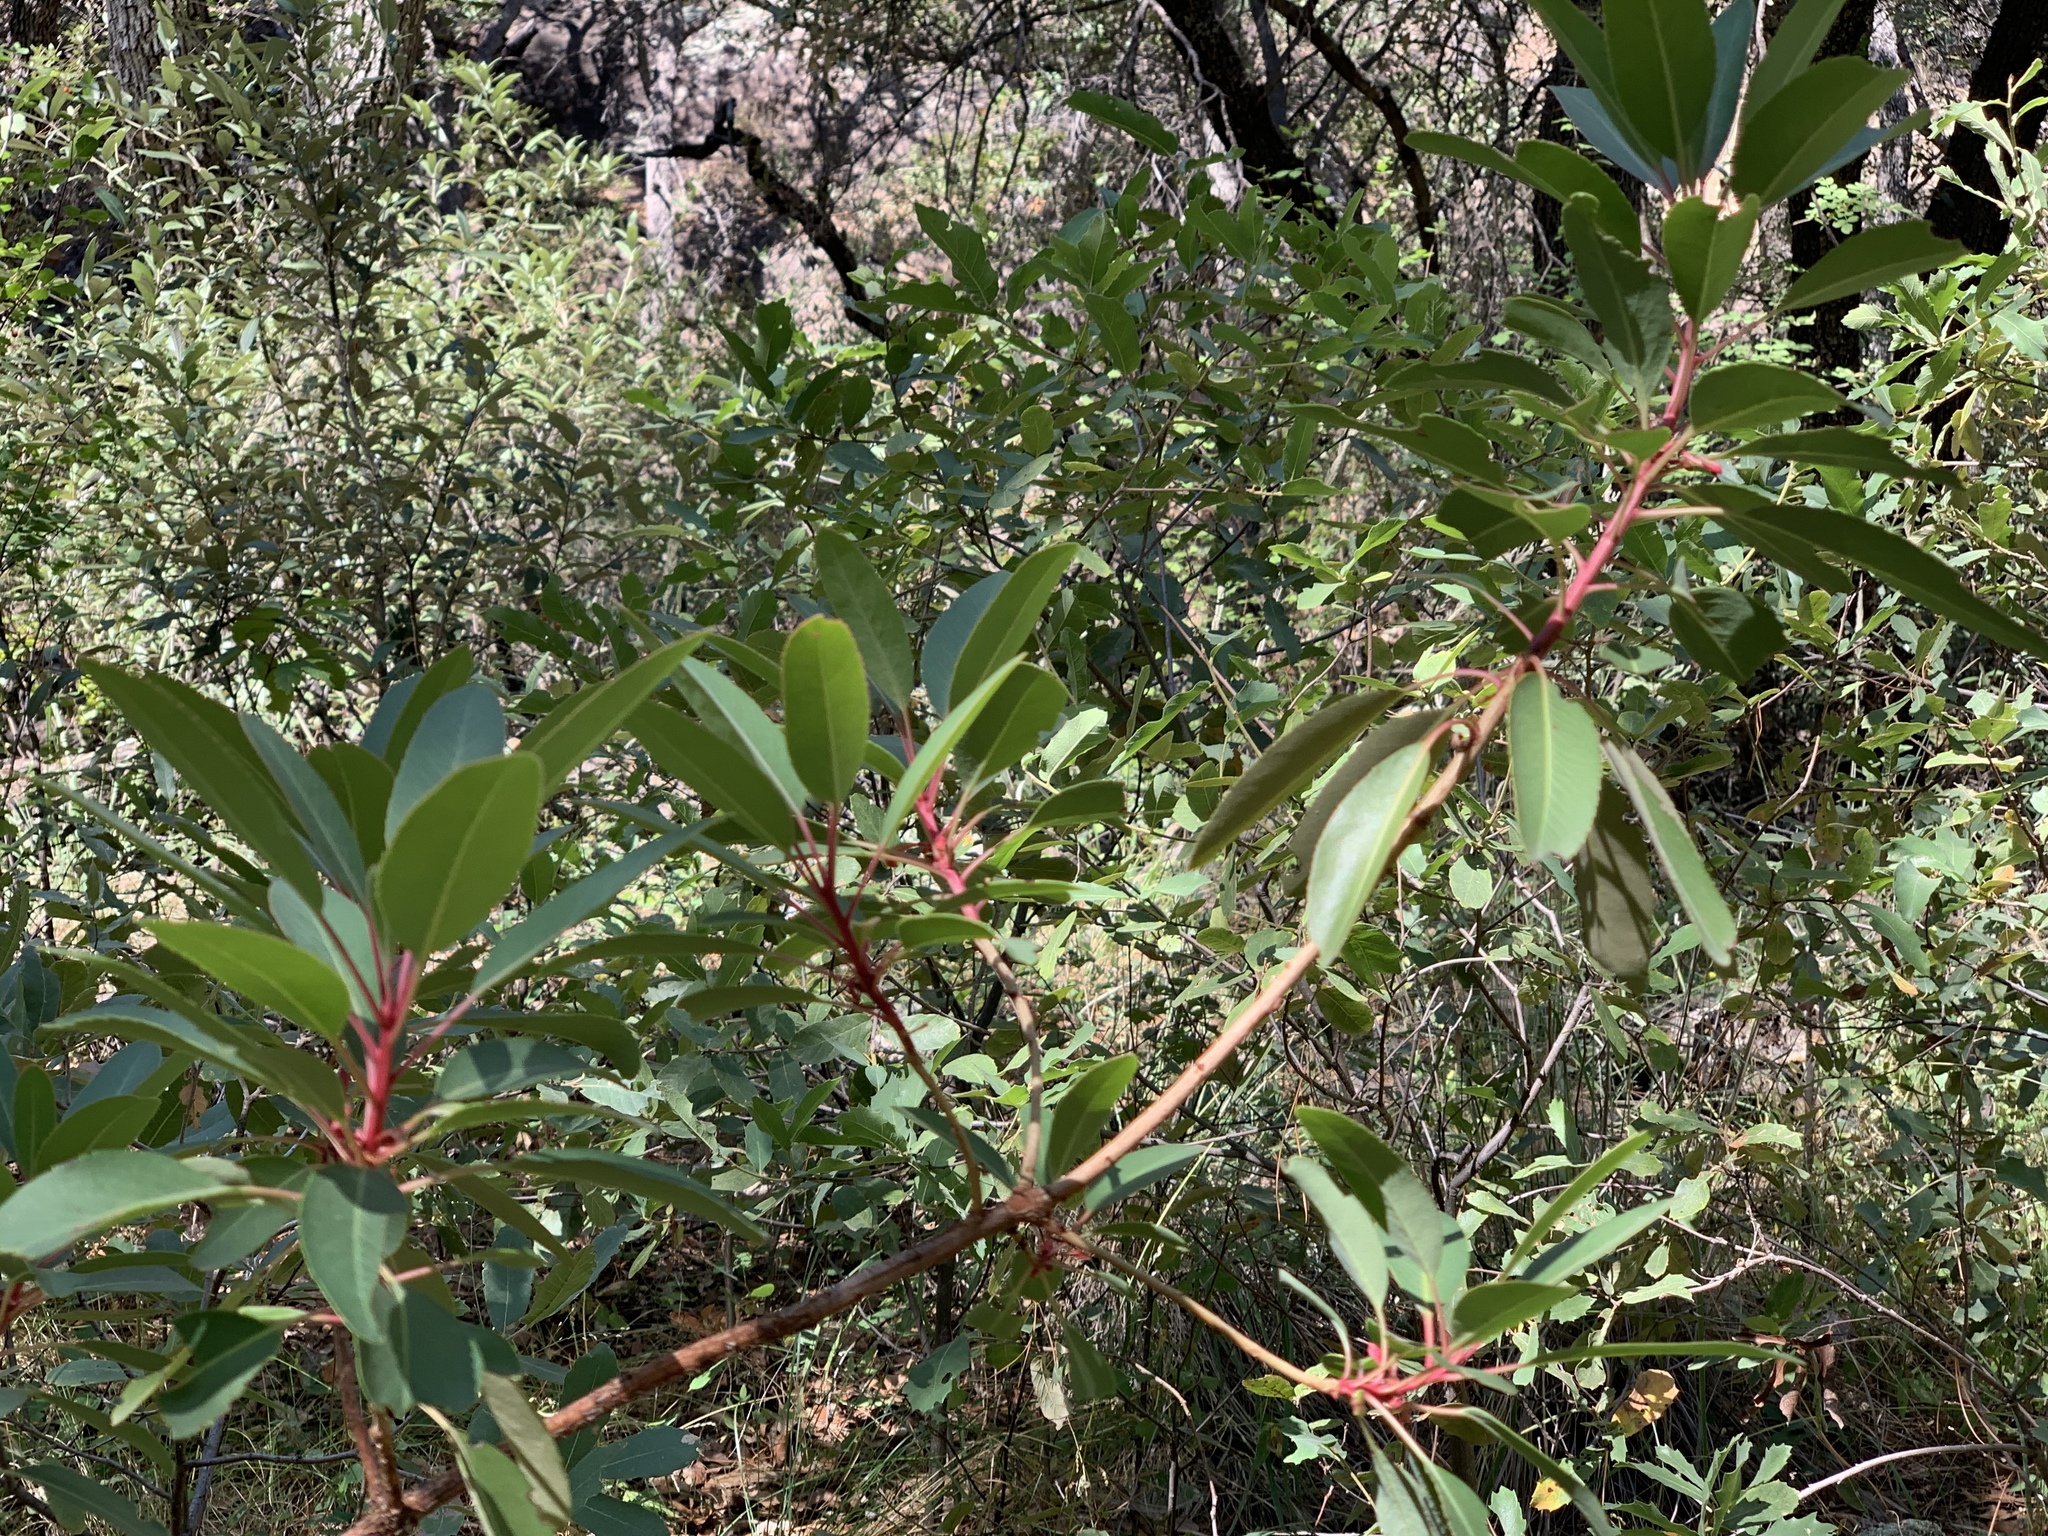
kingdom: Plantae
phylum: Tracheophyta
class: Magnoliopsida
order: Ericales
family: Ericaceae
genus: Arbutus
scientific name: Arbutus arizonica
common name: Arizona madrone
